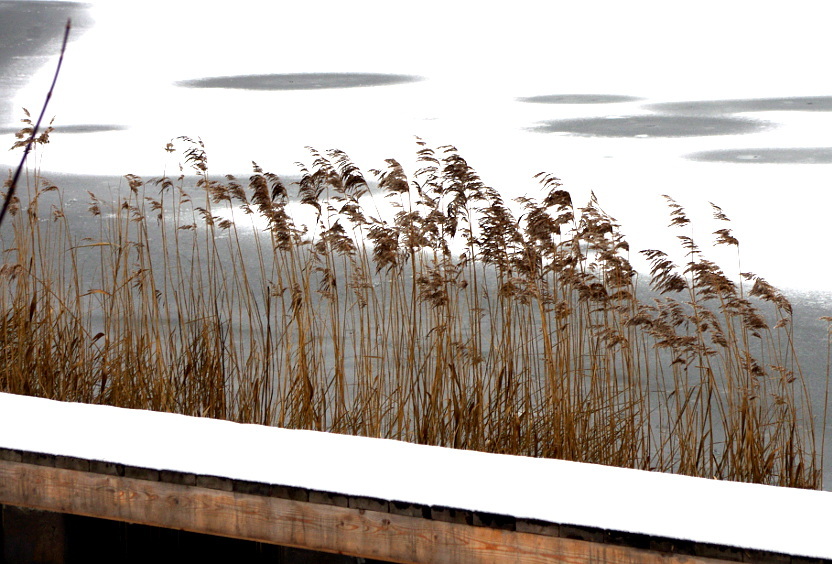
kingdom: Plantae
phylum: Tracheophyta
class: Liliopsida
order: Poales
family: Poaceae
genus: Phragmites
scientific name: Phragmites australis
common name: Common reed
